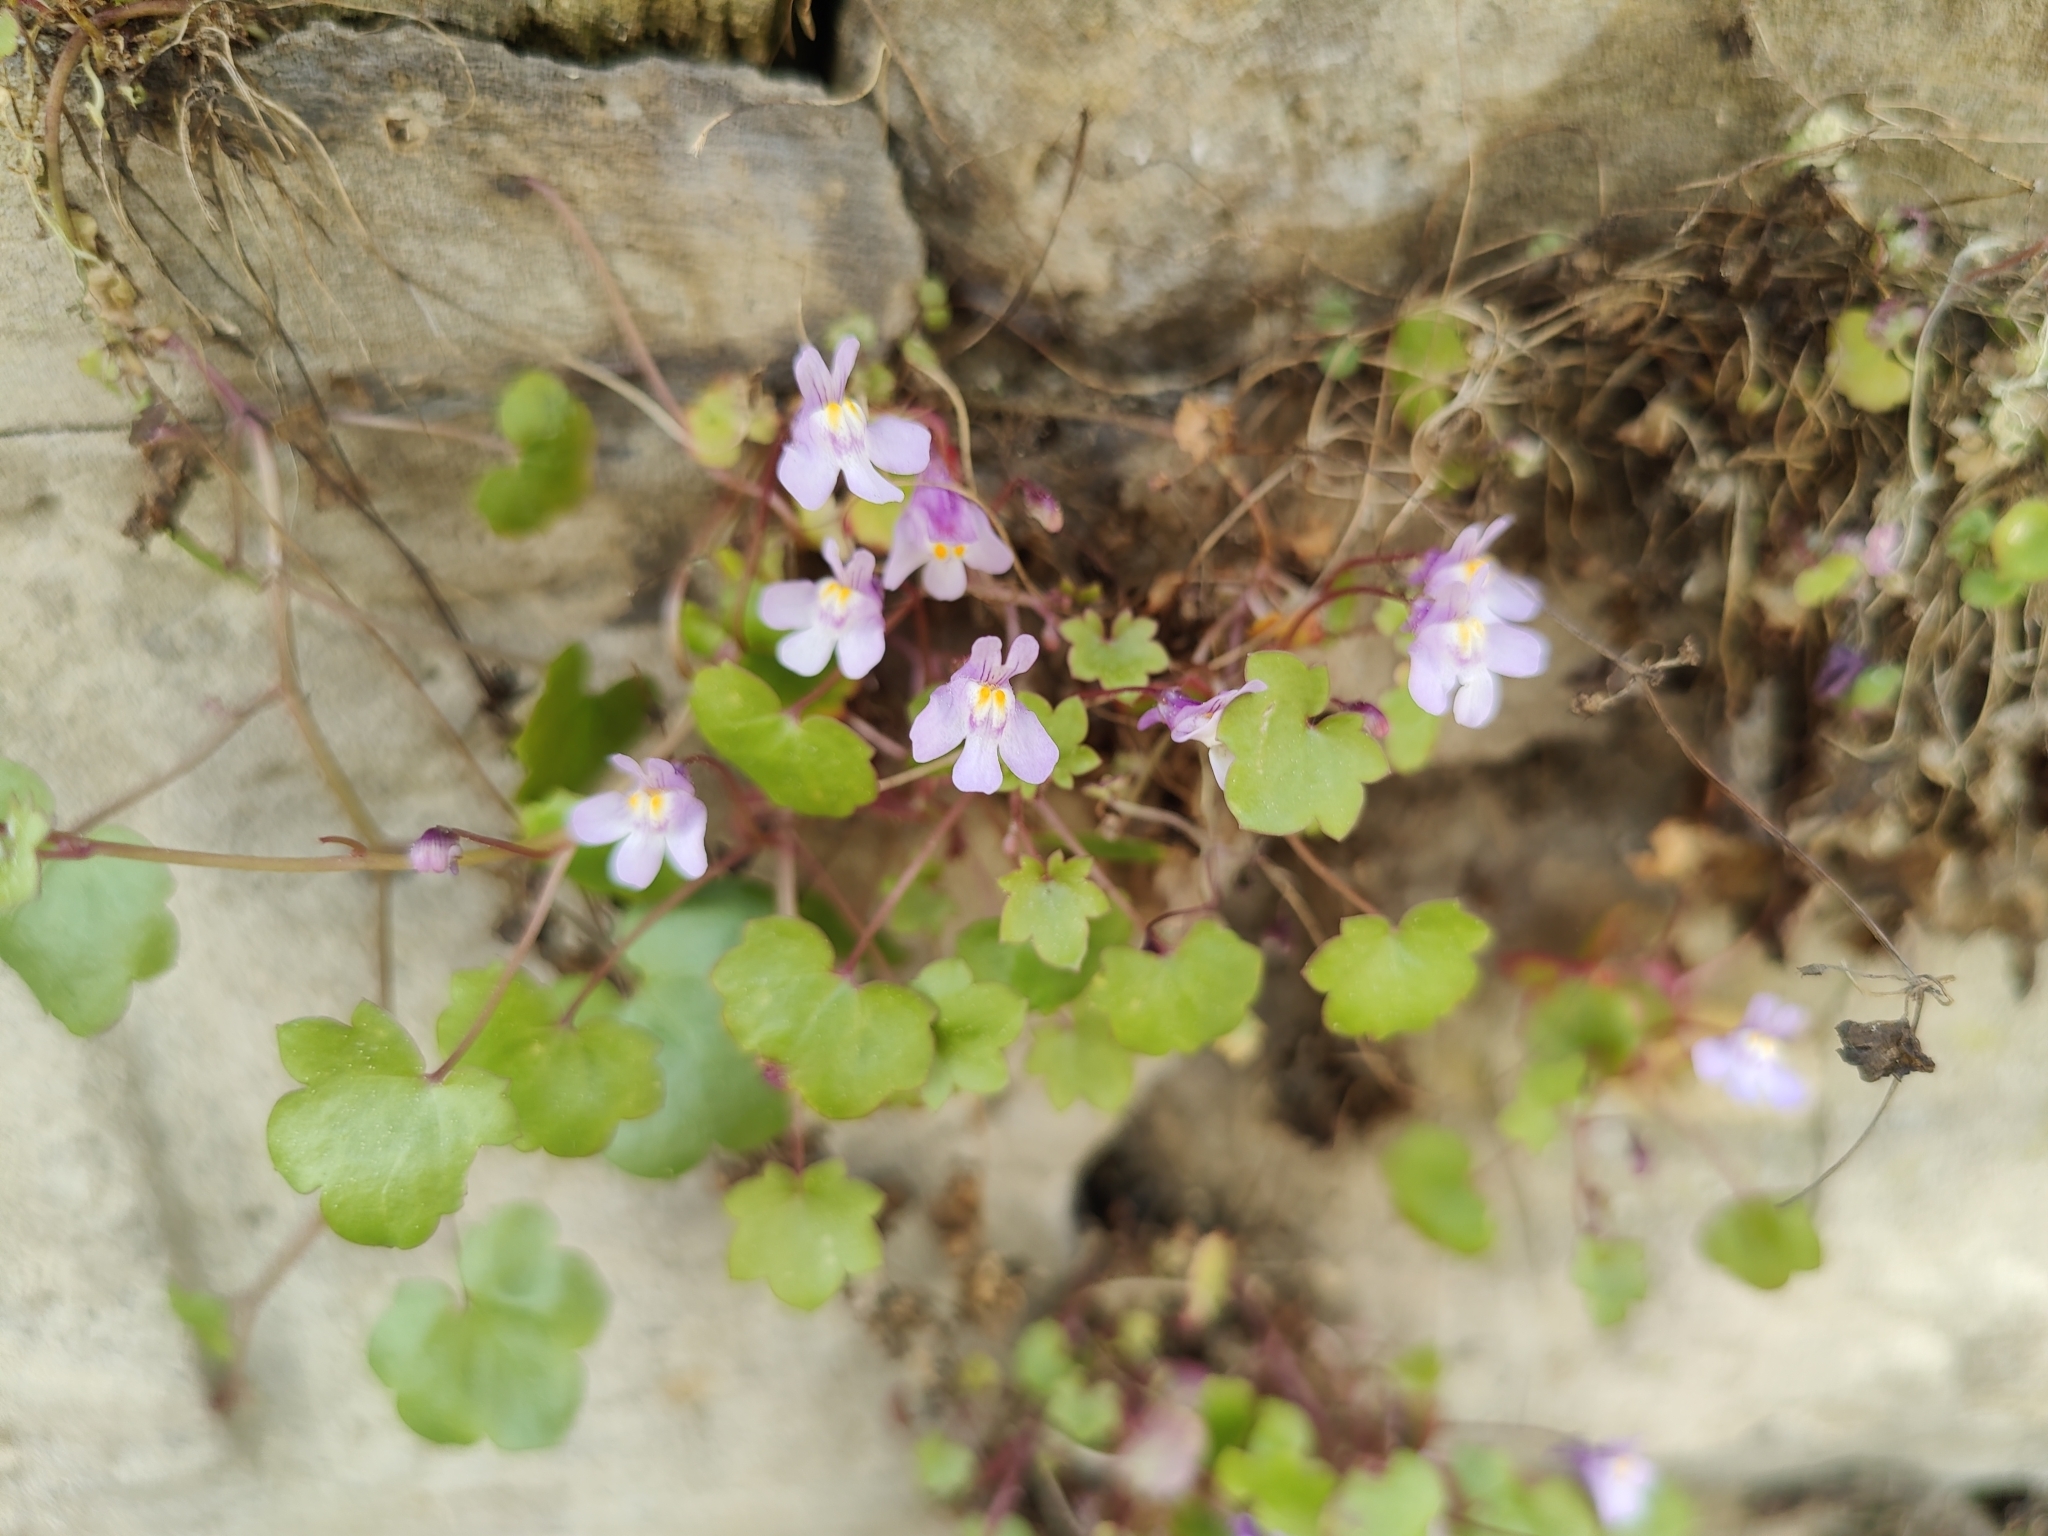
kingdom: Plantae
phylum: Tracheophyta
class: Magnoliopsida
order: Lamiales
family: Plantaginaceae
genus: Cymbalaria
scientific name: Cymbalaria muralis
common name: Ivy-leaved toadflax
